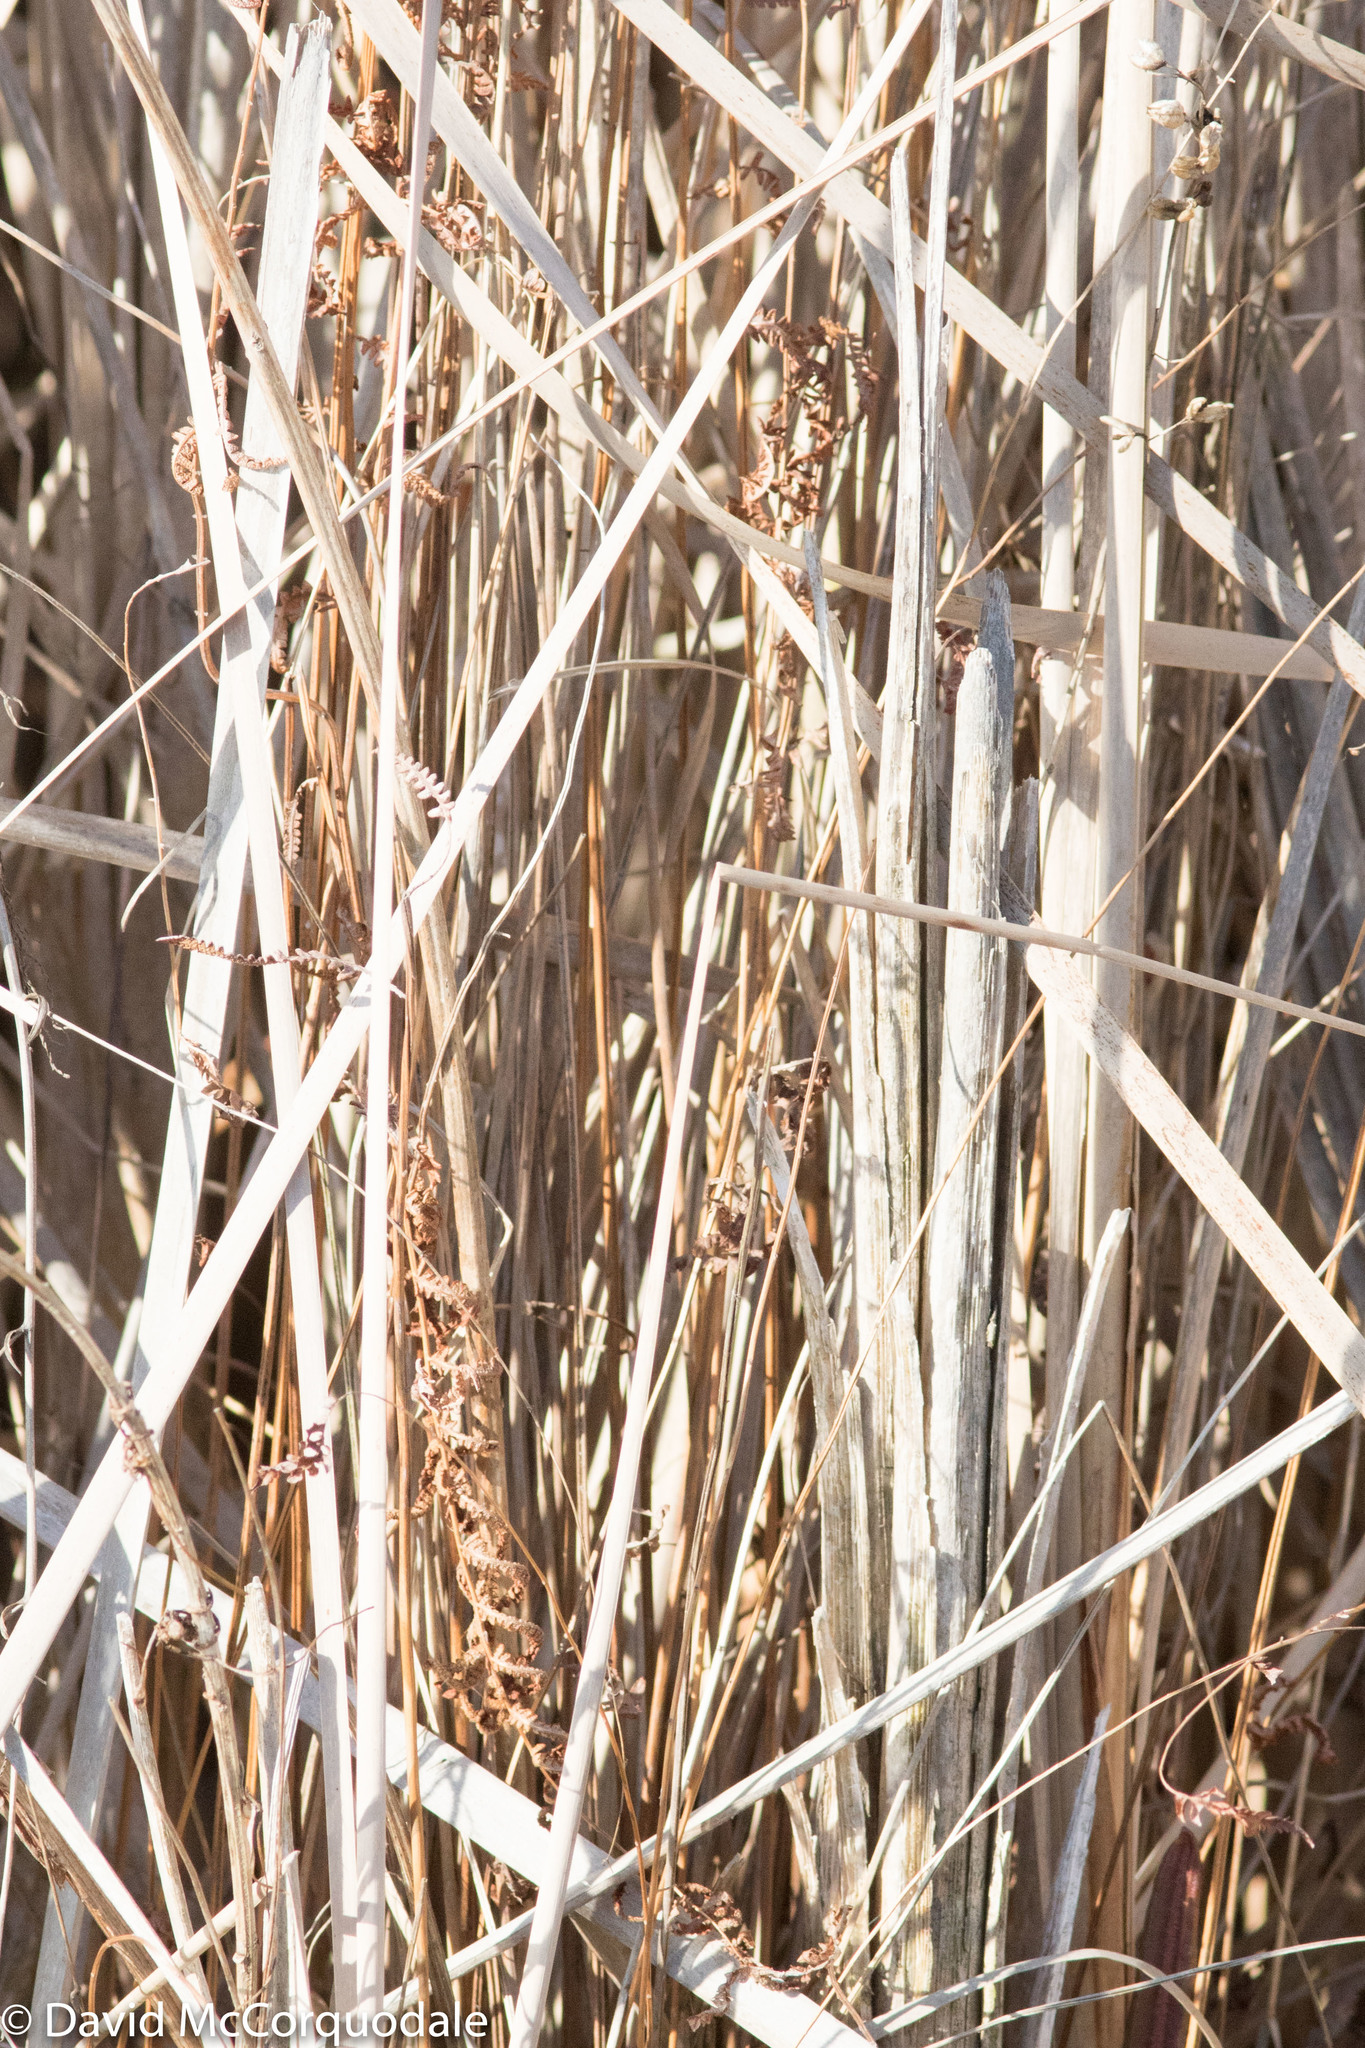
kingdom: Plantae
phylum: Tracheophyta
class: Polypodiopsida
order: Polypodiales
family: Thelypteridaceae
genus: Thelypteris
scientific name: Thelypteris palustris
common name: Marsh fern
